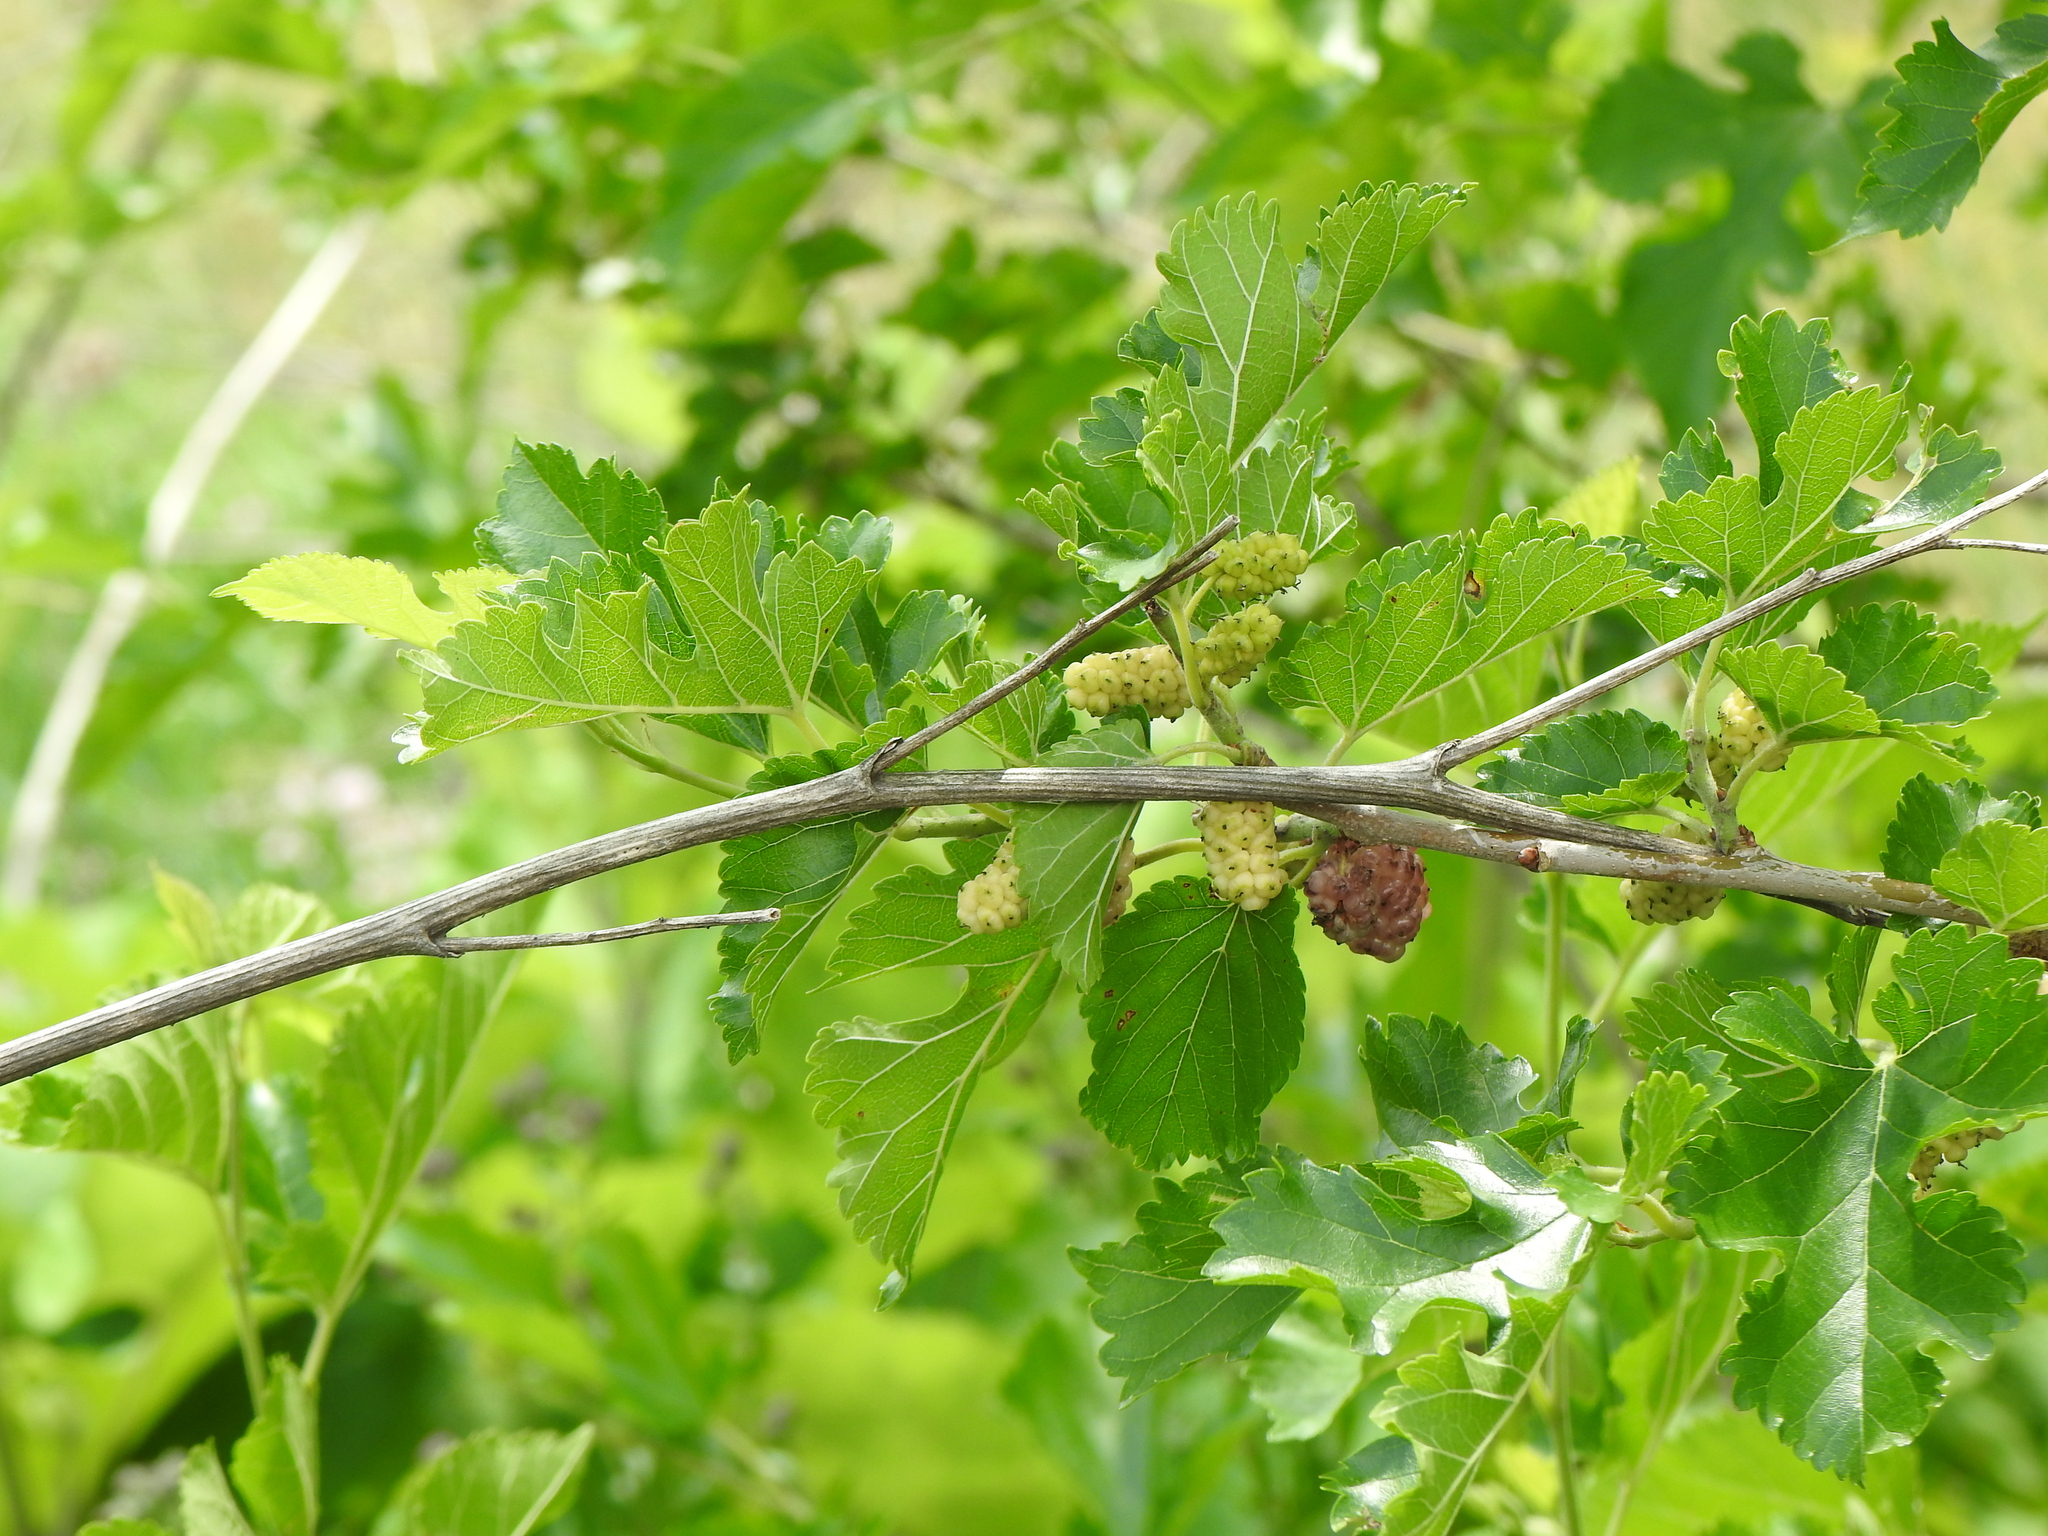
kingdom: Plantae
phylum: Tracheophyta
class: Magnoliopsida
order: Rosales
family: Moraceae
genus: Morus
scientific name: Morus alba
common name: White mulberry
